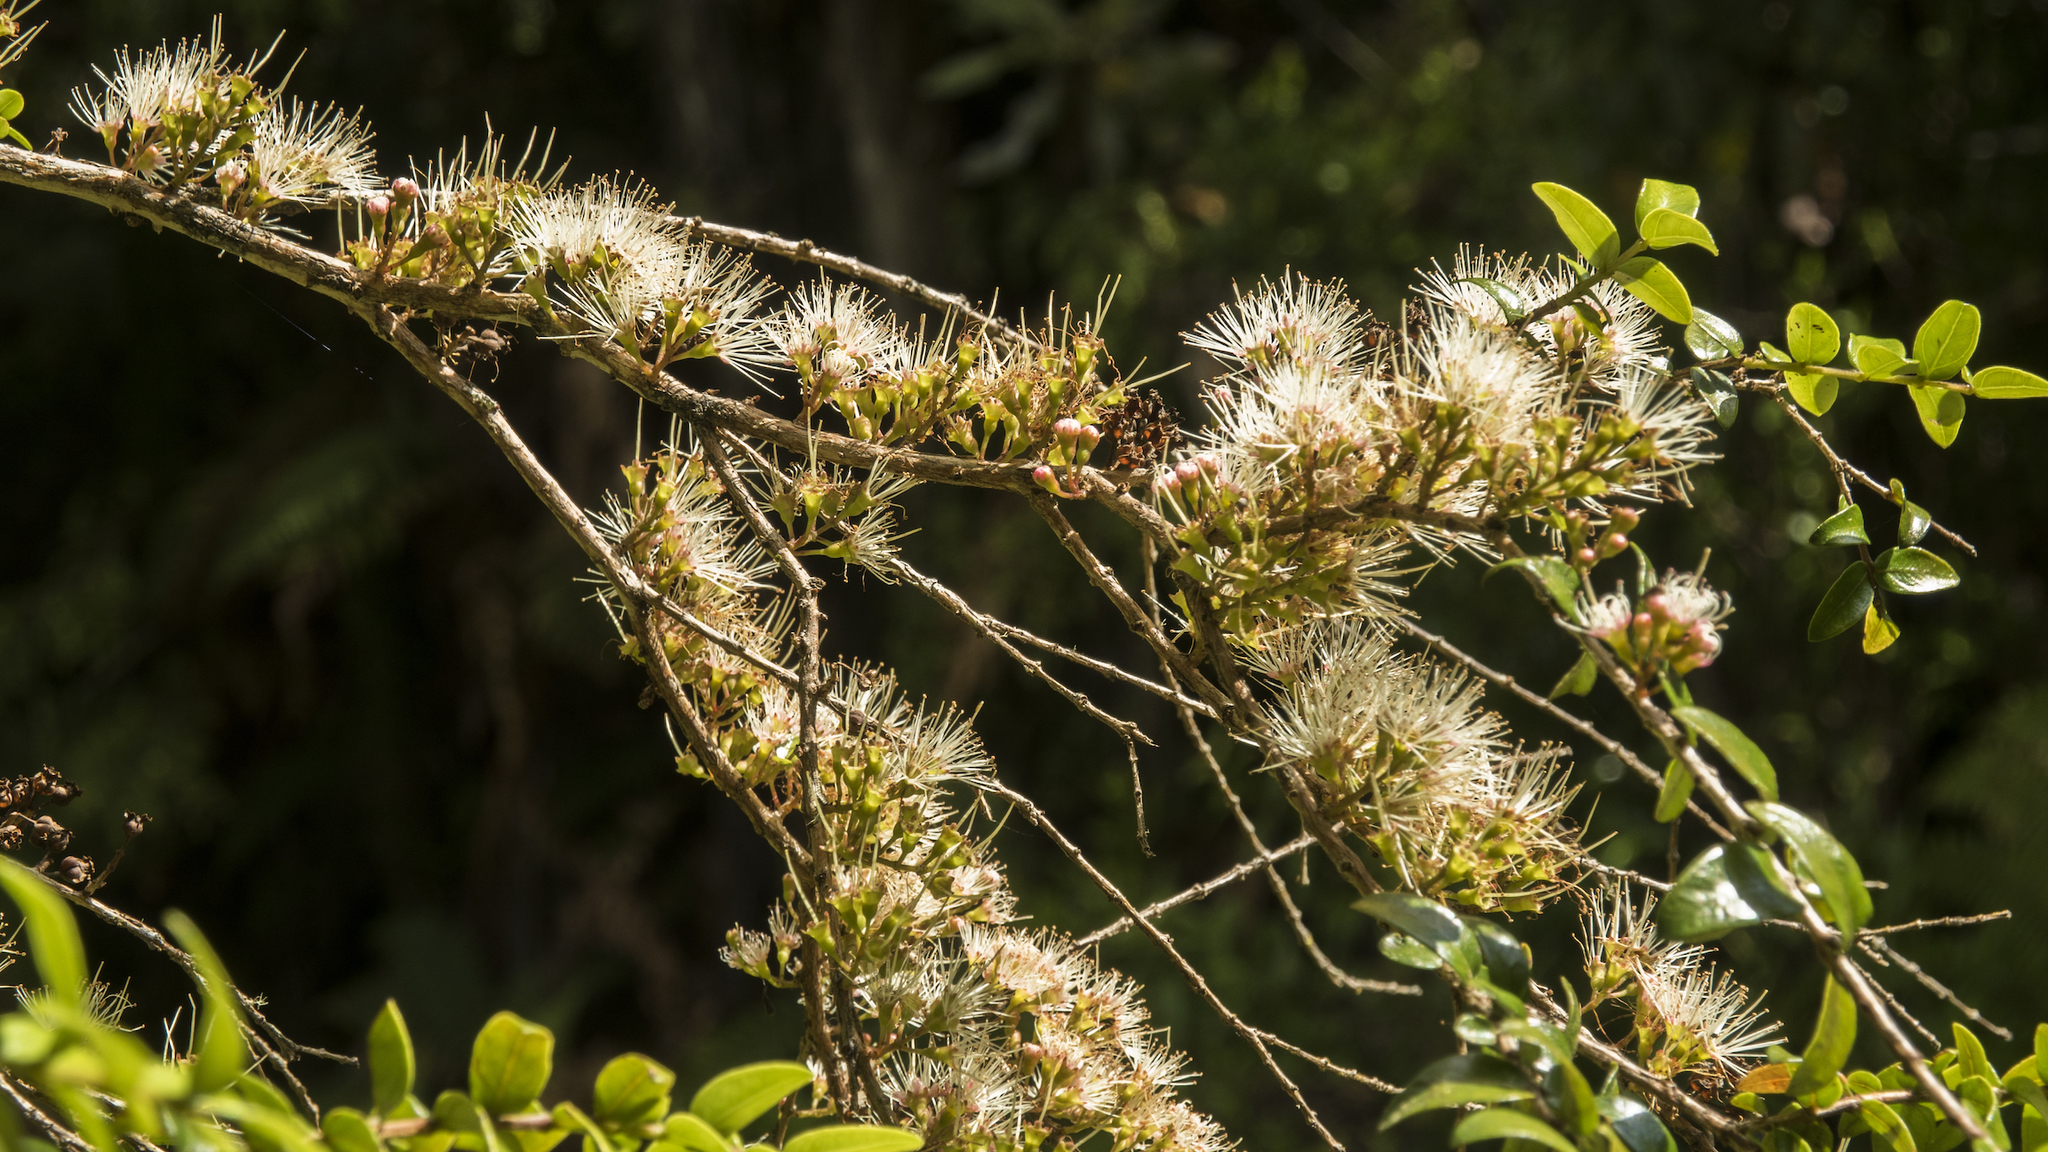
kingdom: Plantae
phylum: Tracheophyta
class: Magnoliopsida
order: Myrtales
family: Myrtaceae
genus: Metrosideros
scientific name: Metrosideros diffusa
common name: Small ratavine
